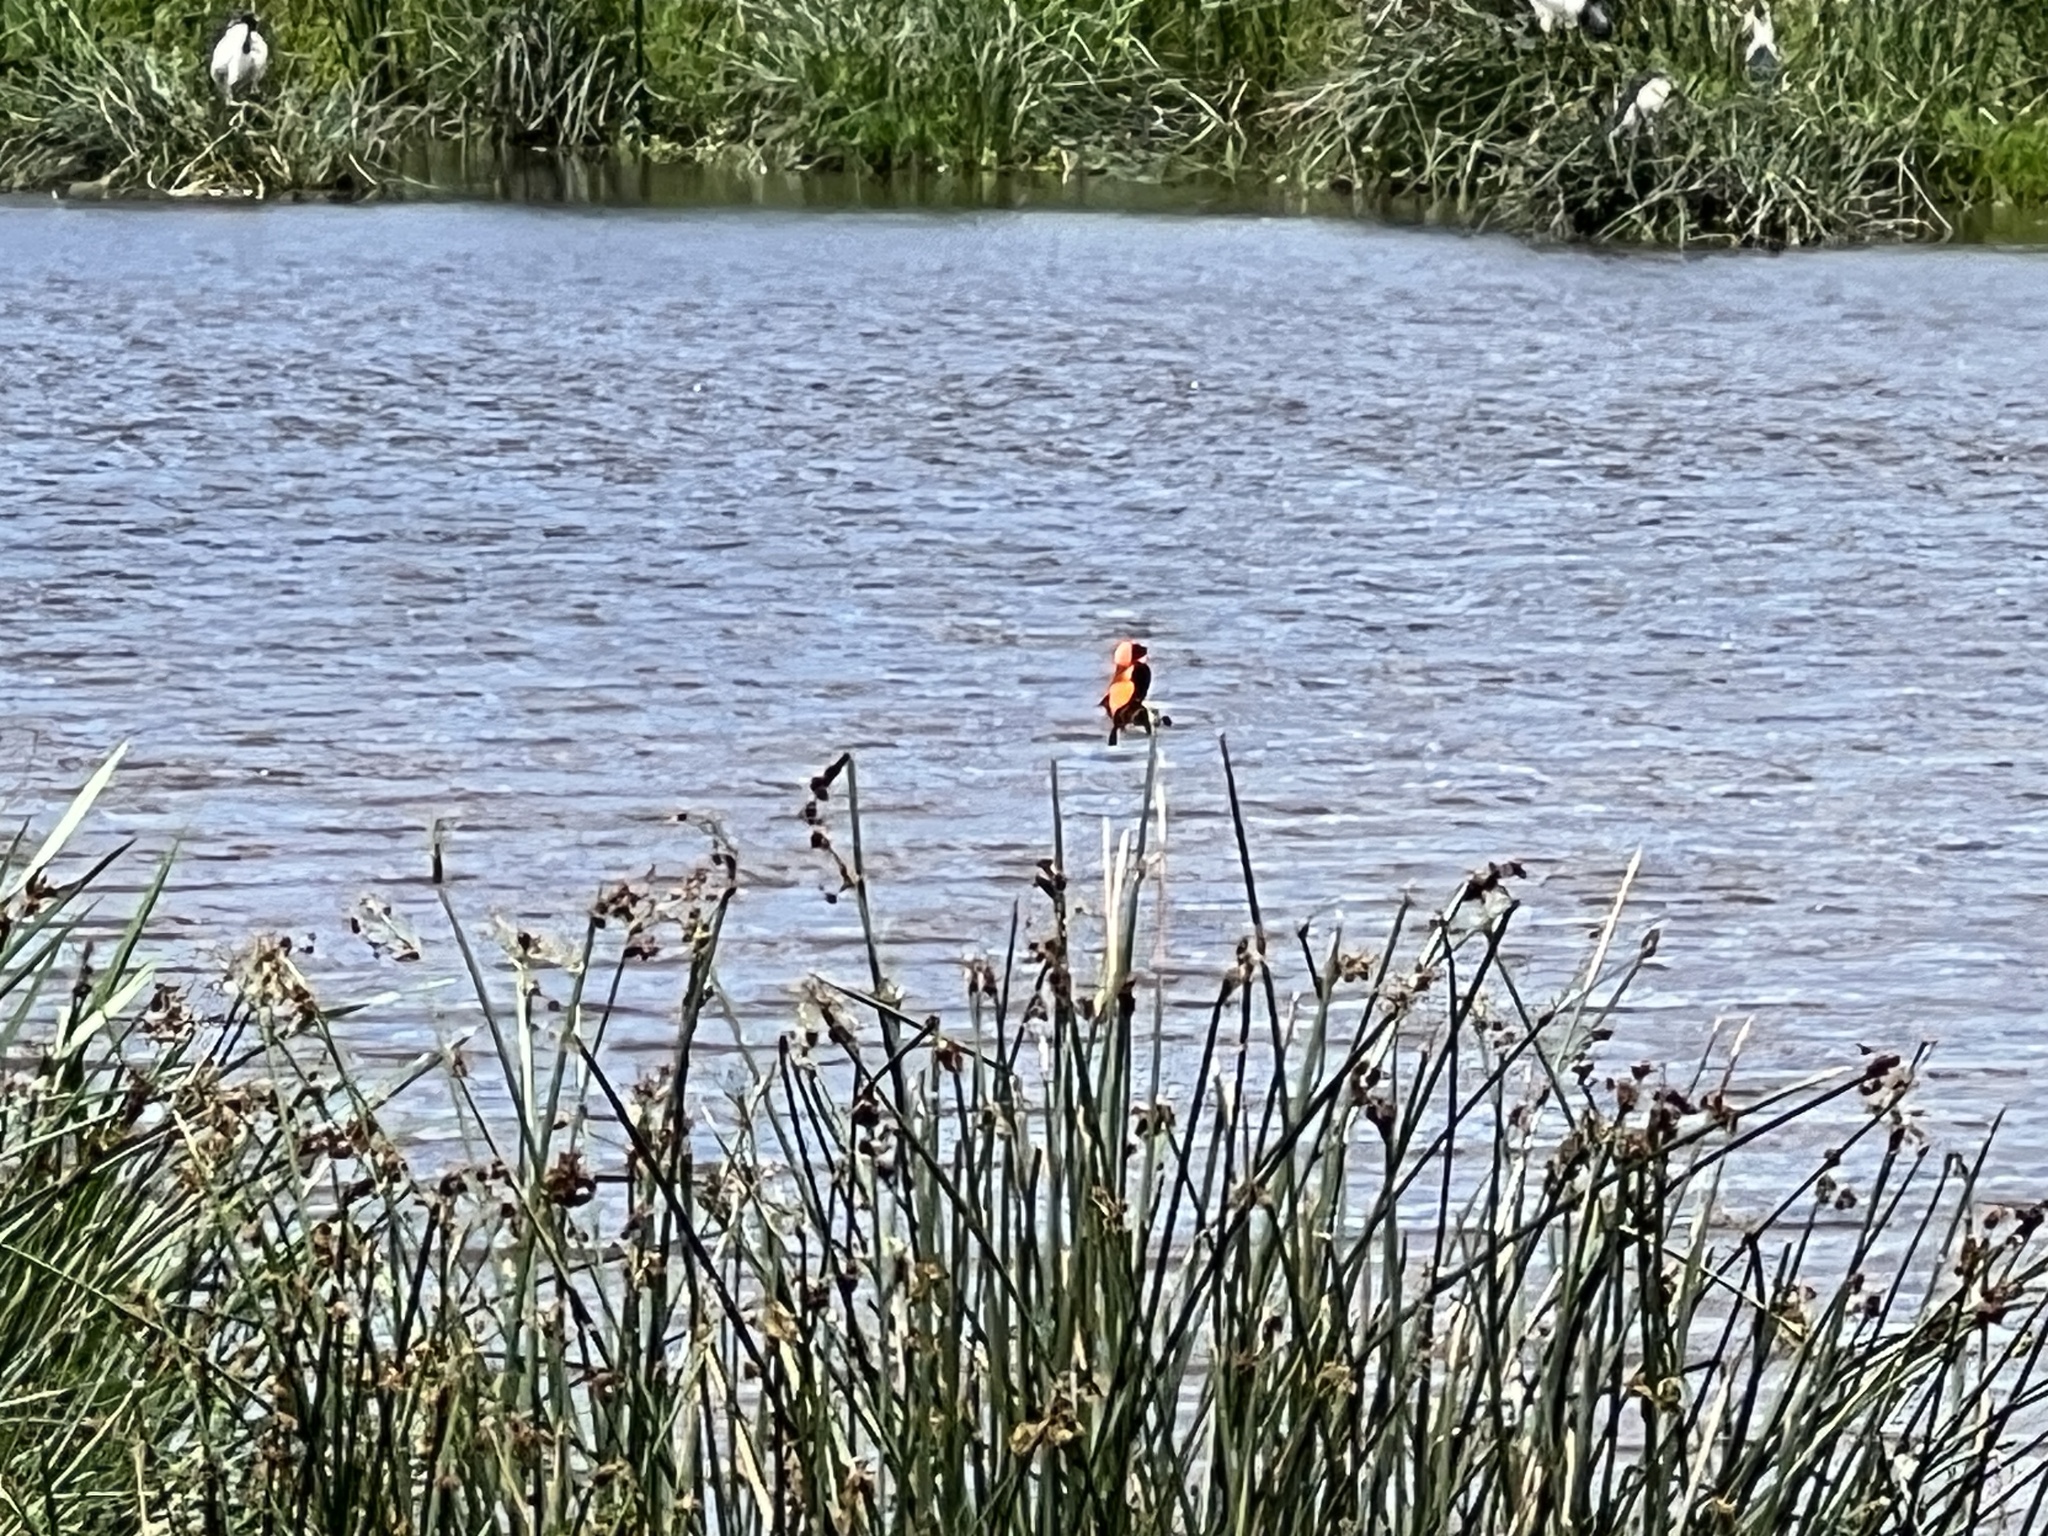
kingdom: Animalia
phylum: Chordata
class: Aves
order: Passeriformes
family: Ploceidae
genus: Euplectes
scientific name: Euplectes orix
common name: Southern red bishop
